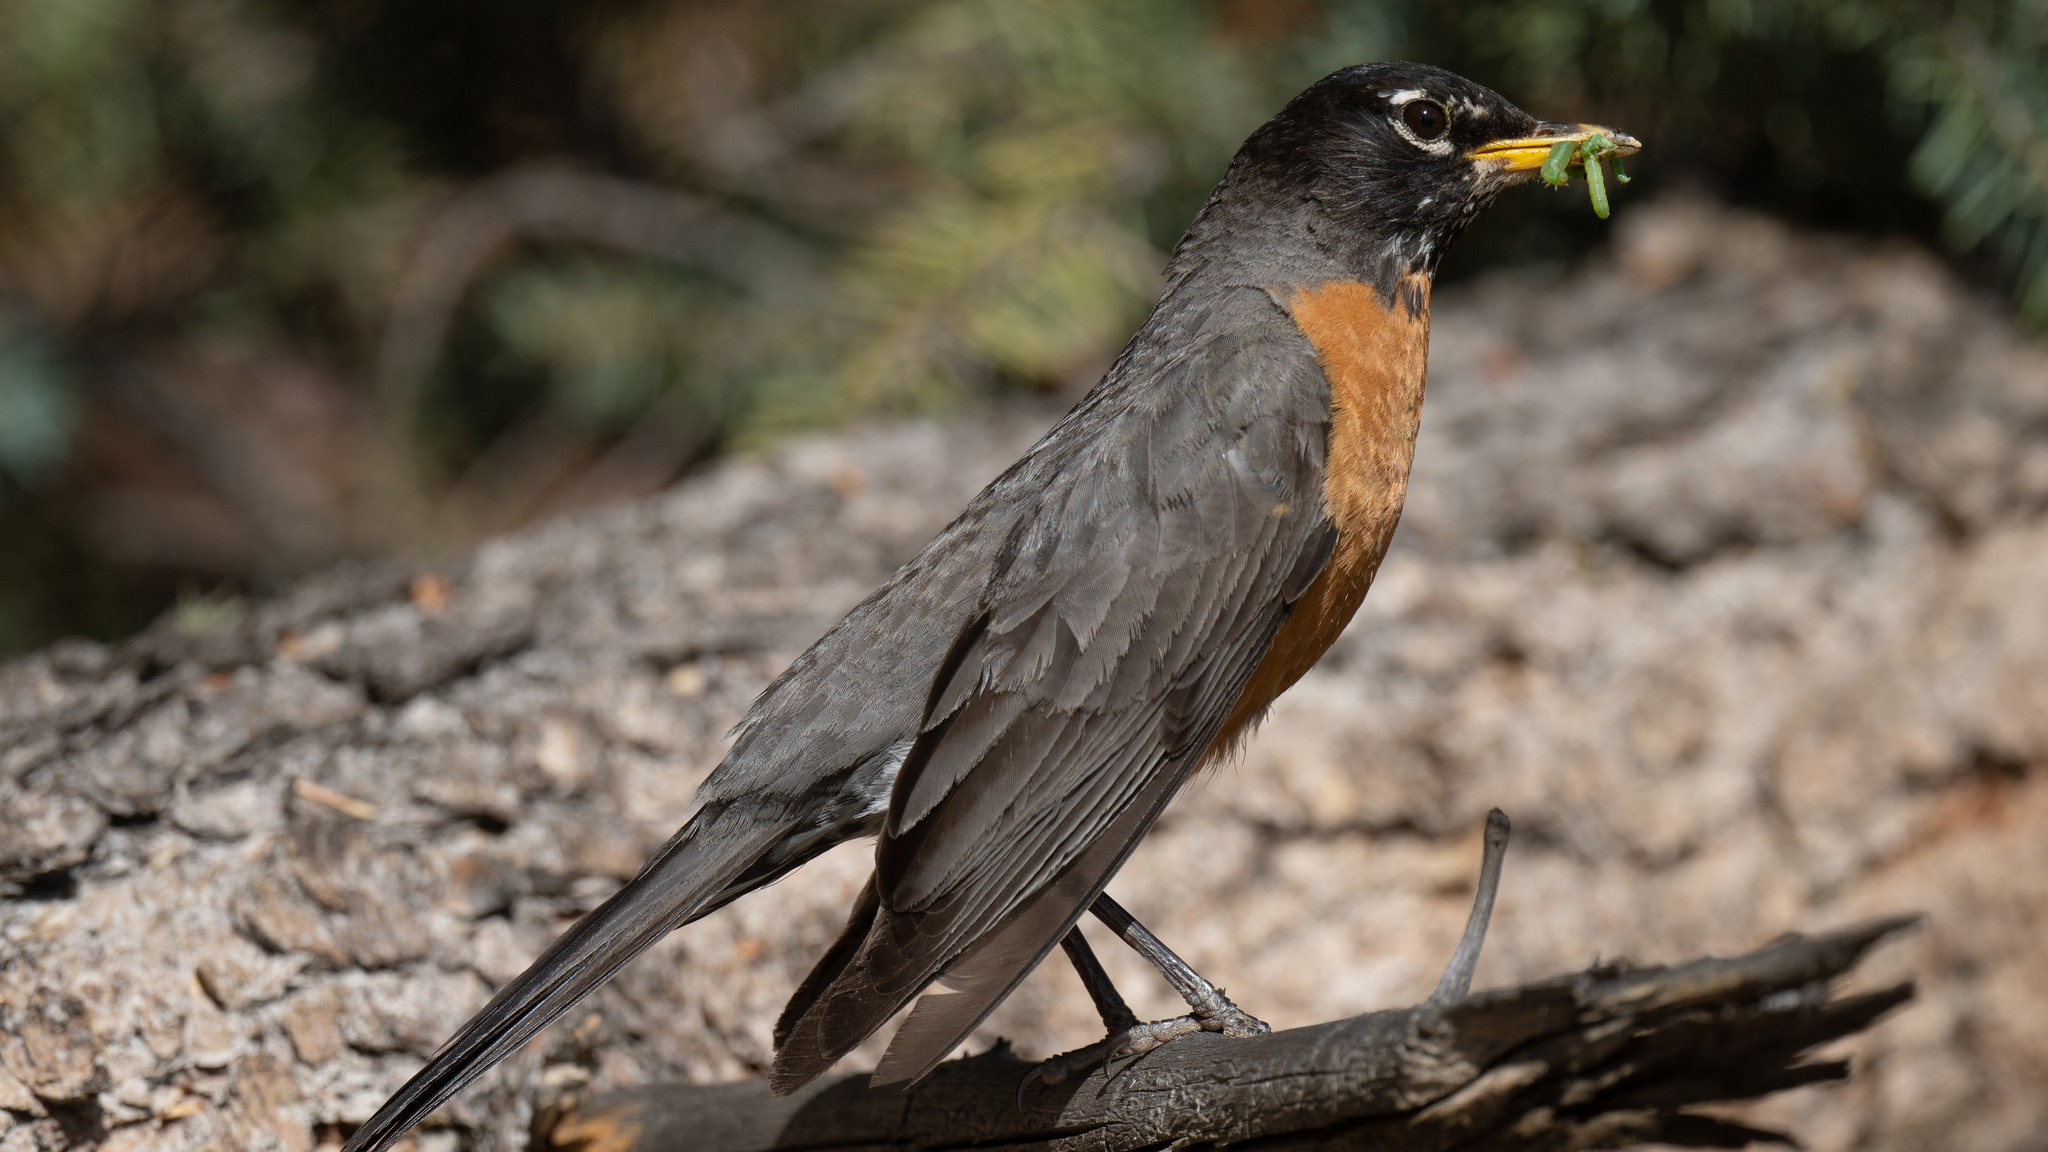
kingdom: Animalia
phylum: Chordata
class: Aves
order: Passeriformes
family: Turdidae
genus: Turdus
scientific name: Turdus migratorius
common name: American robin
